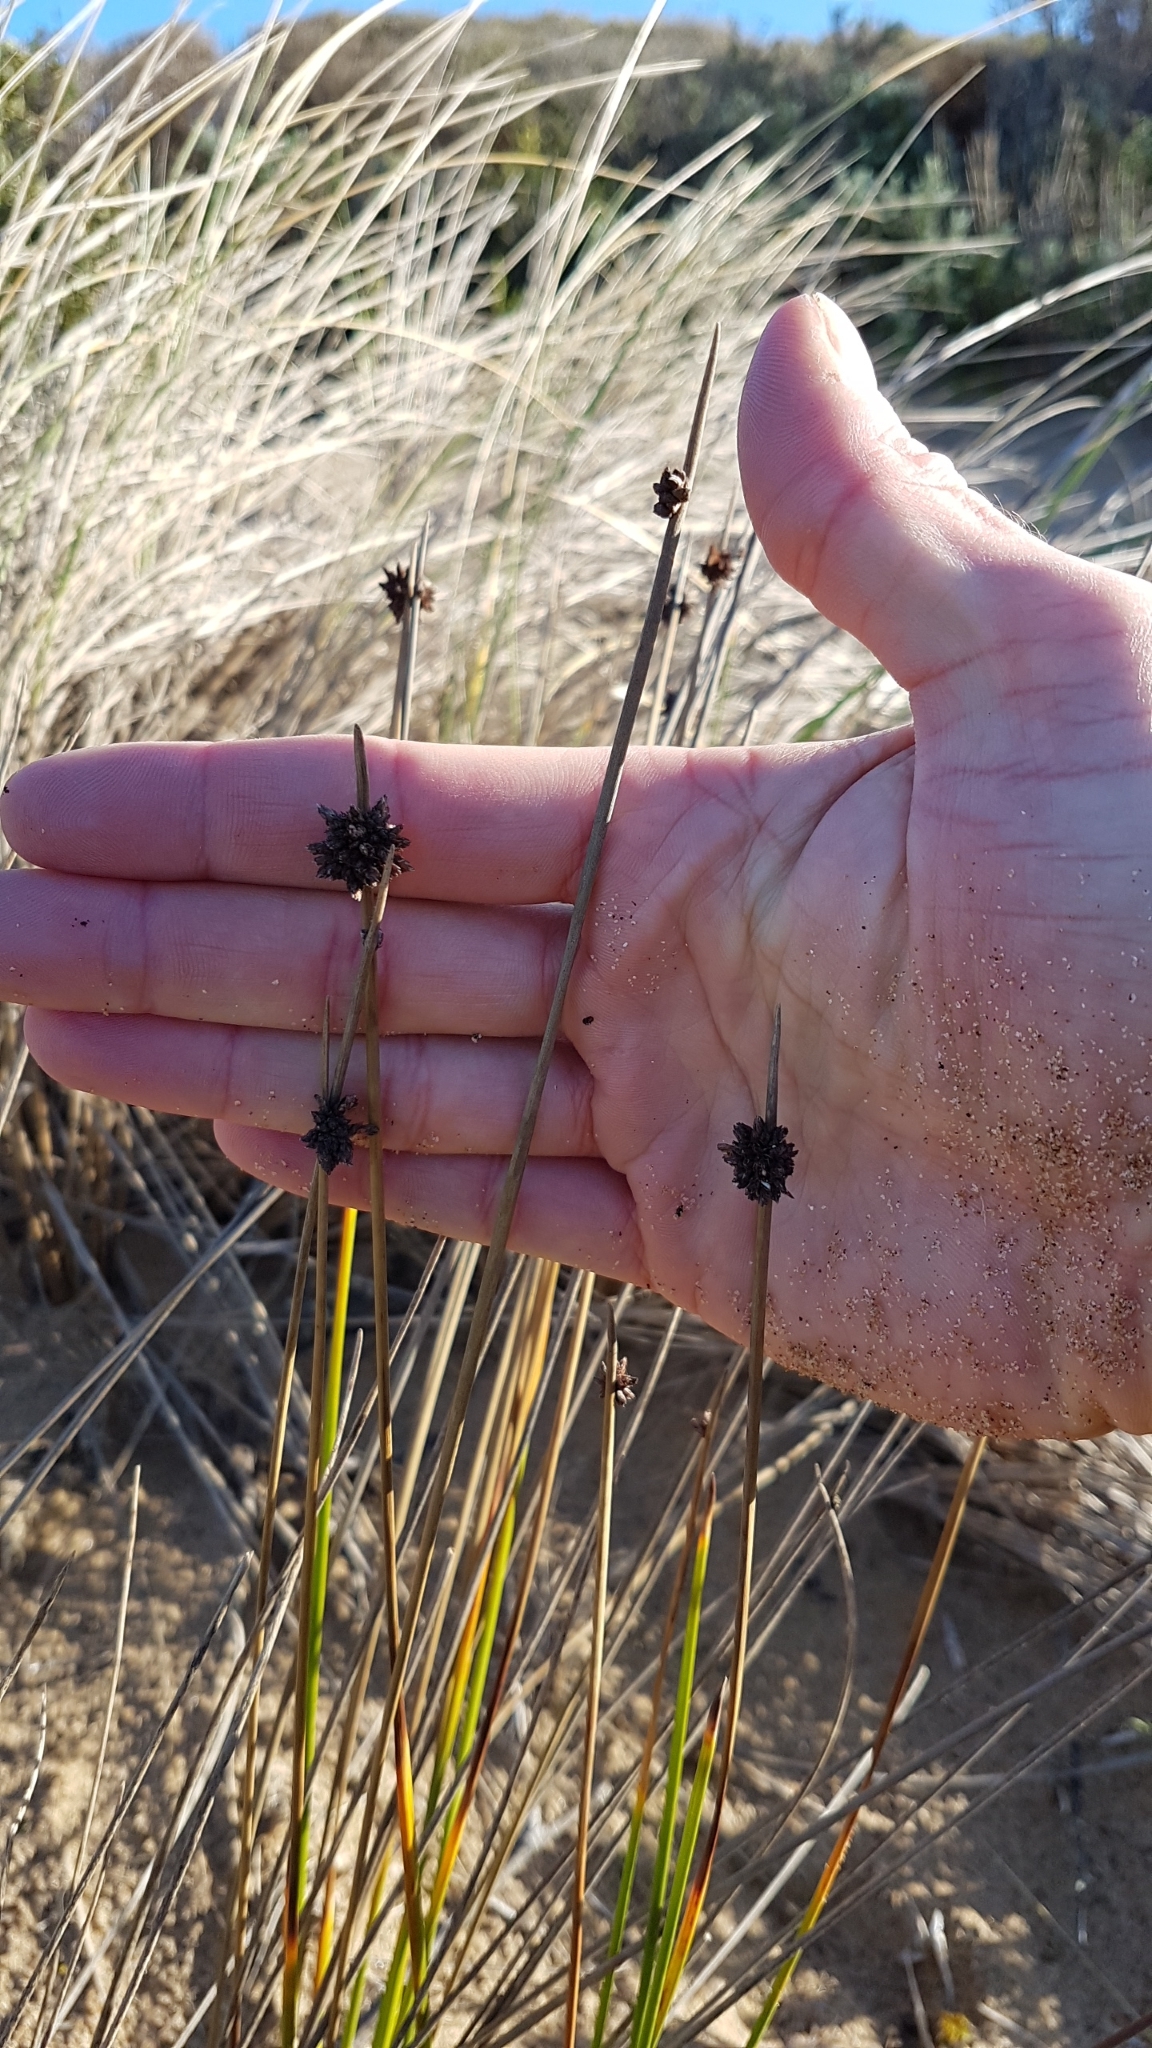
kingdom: Plantae
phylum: Tracheophyta
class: Liliopsida
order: Poales
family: Cyperaceae
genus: Ficinia
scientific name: Ficinia nodosa
